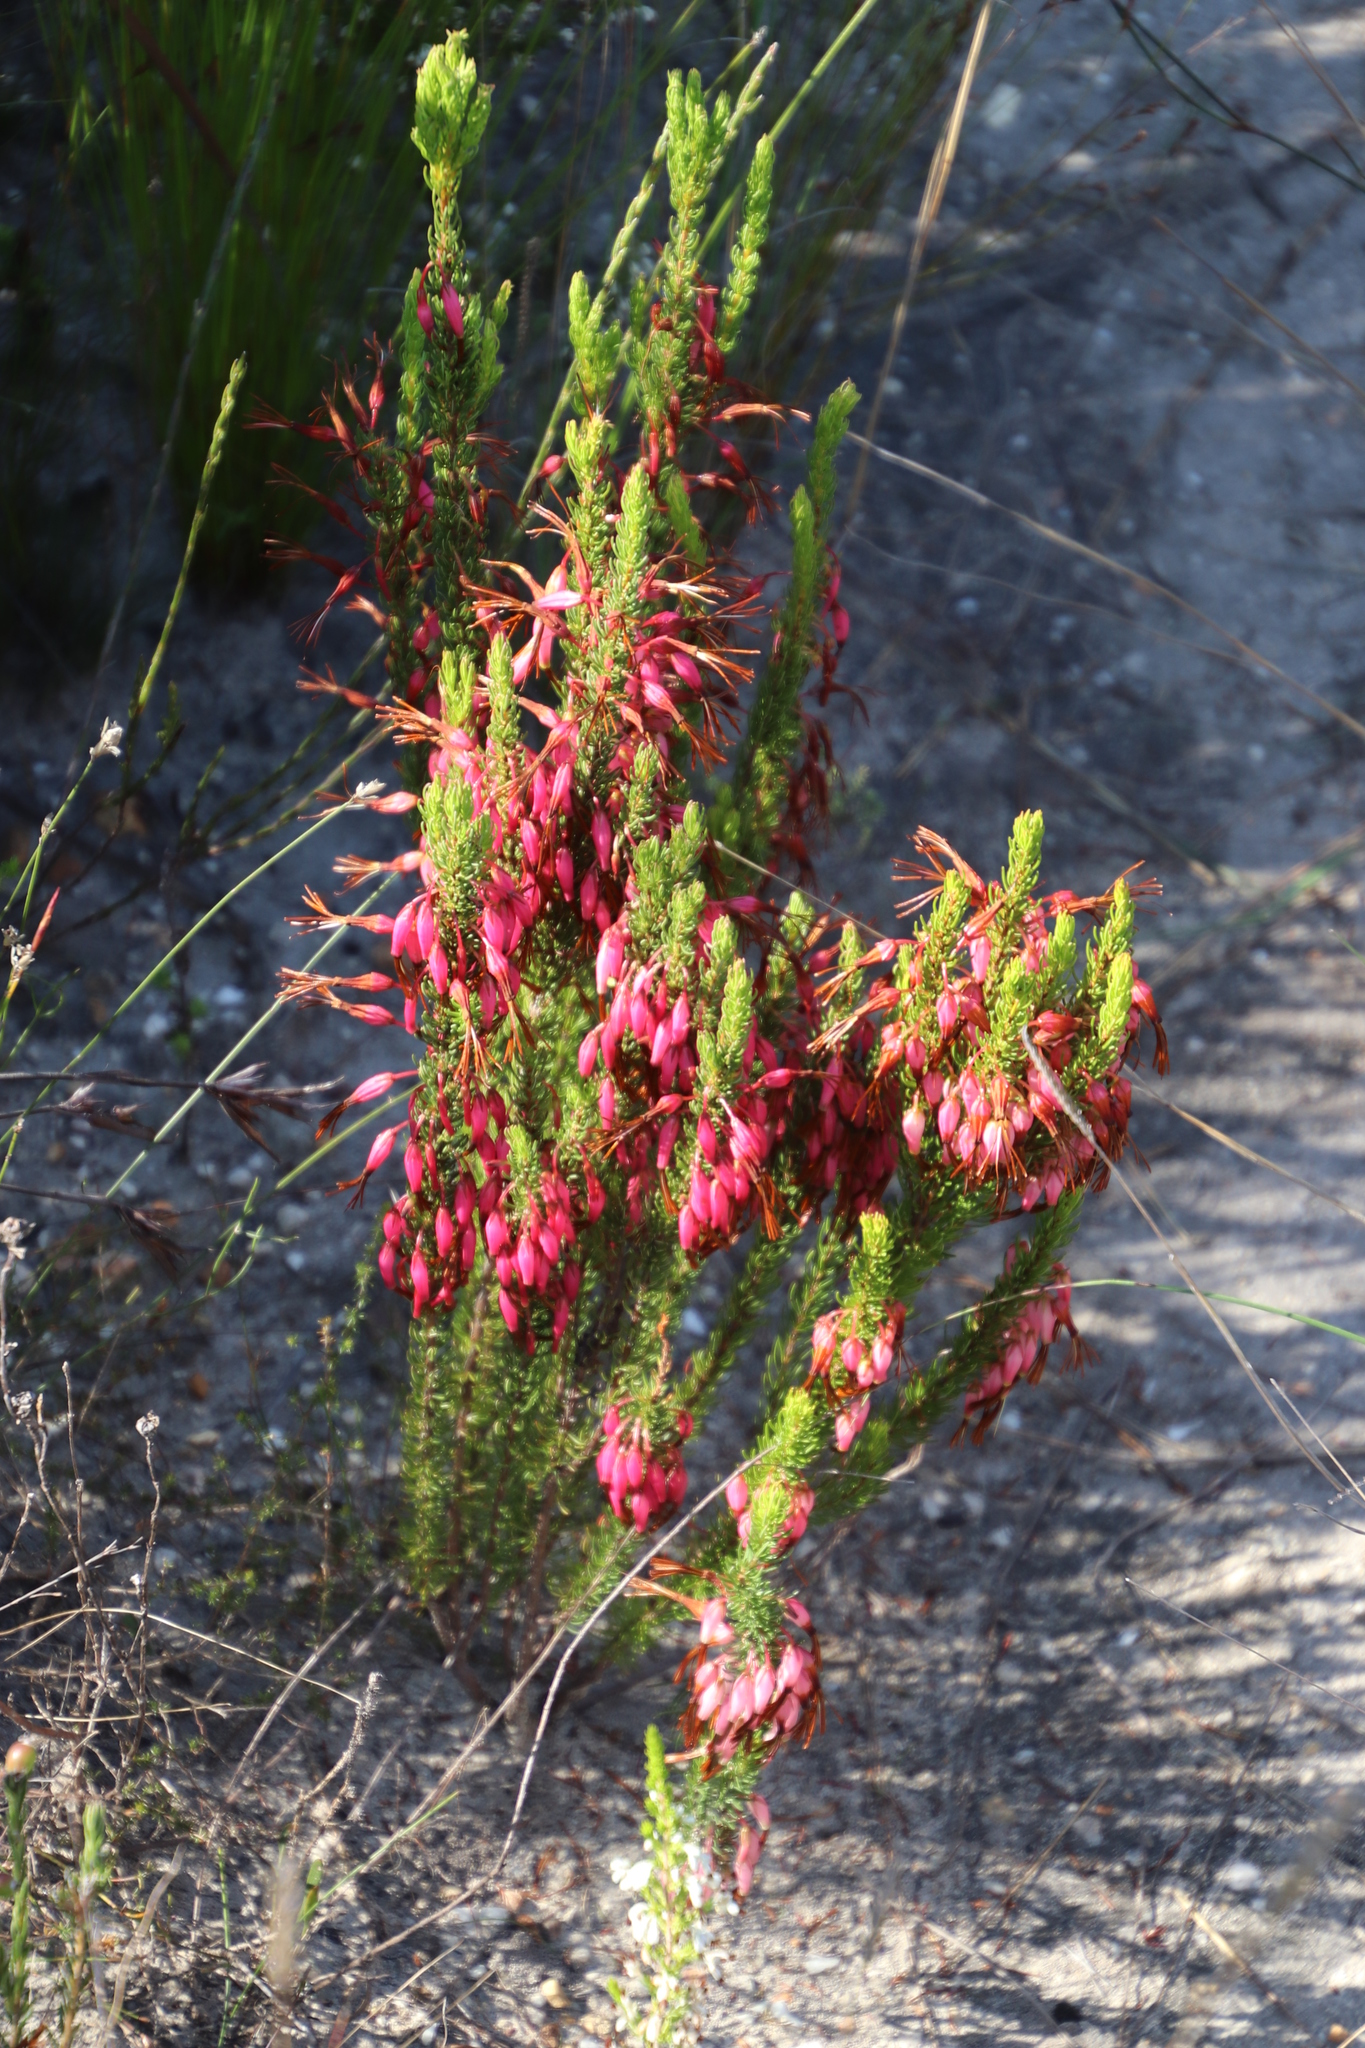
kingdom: Plantae
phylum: Tracheophyta
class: Magnoliopsida
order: Ericales
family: Ericaceae
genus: Erica
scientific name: Erica plukenetii
